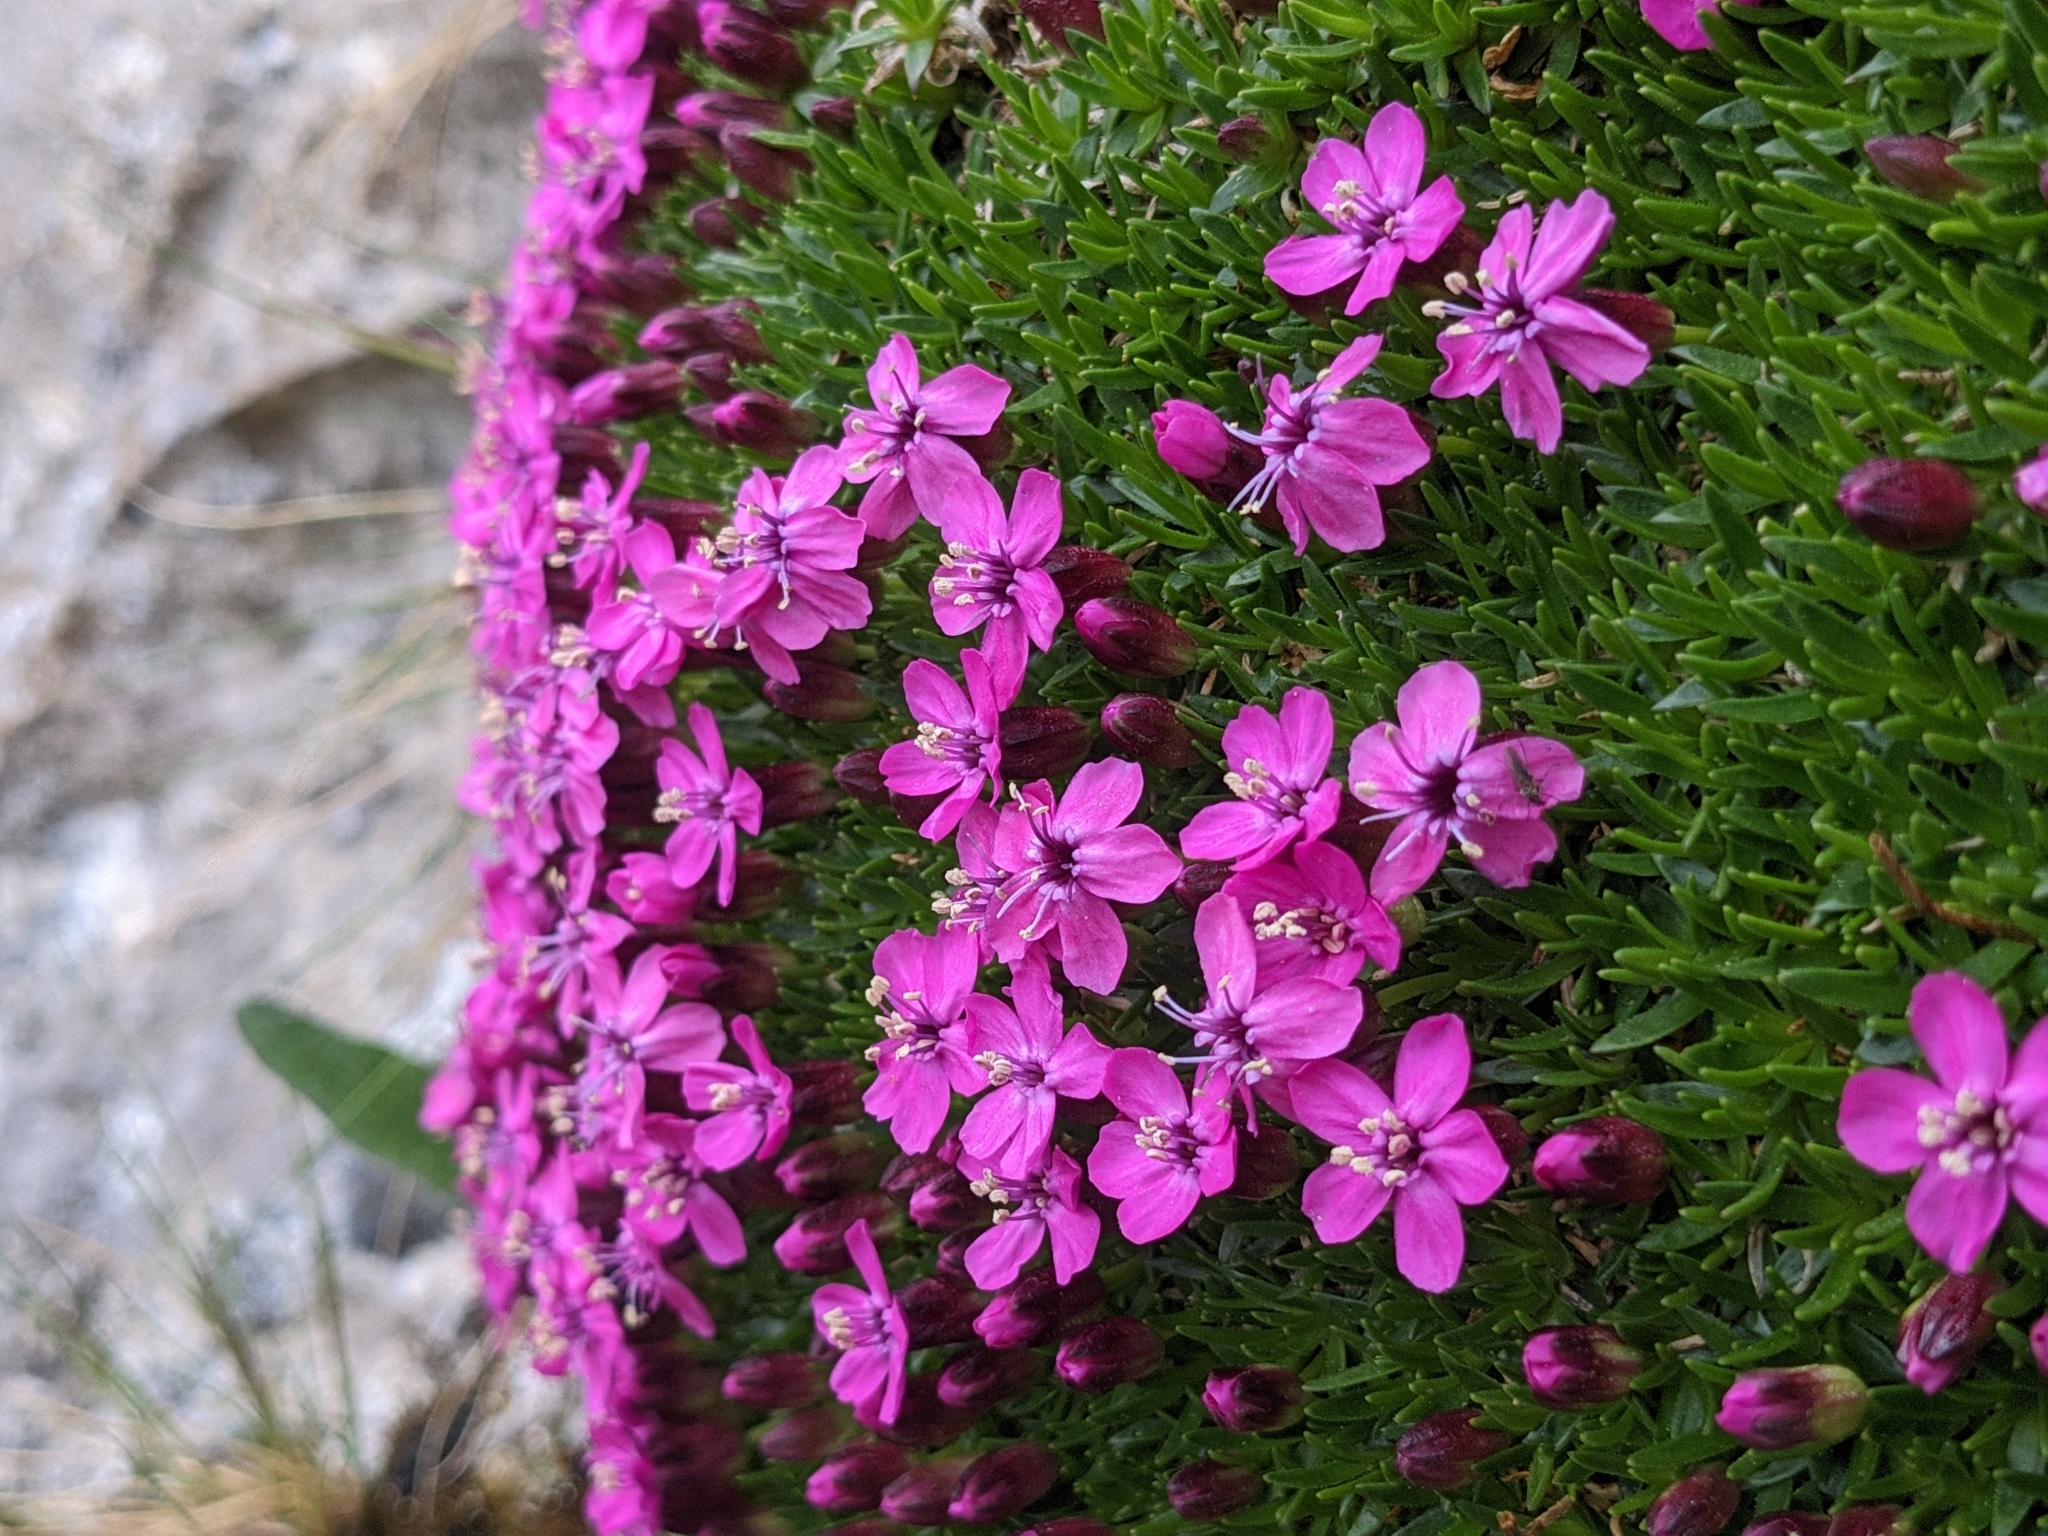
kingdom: Plantae
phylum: Tracheophyta
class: Magnoliopsida
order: Caryophyllales
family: Caryophyllaceae
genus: Silene
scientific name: Silene acaulis
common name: Moss campion
